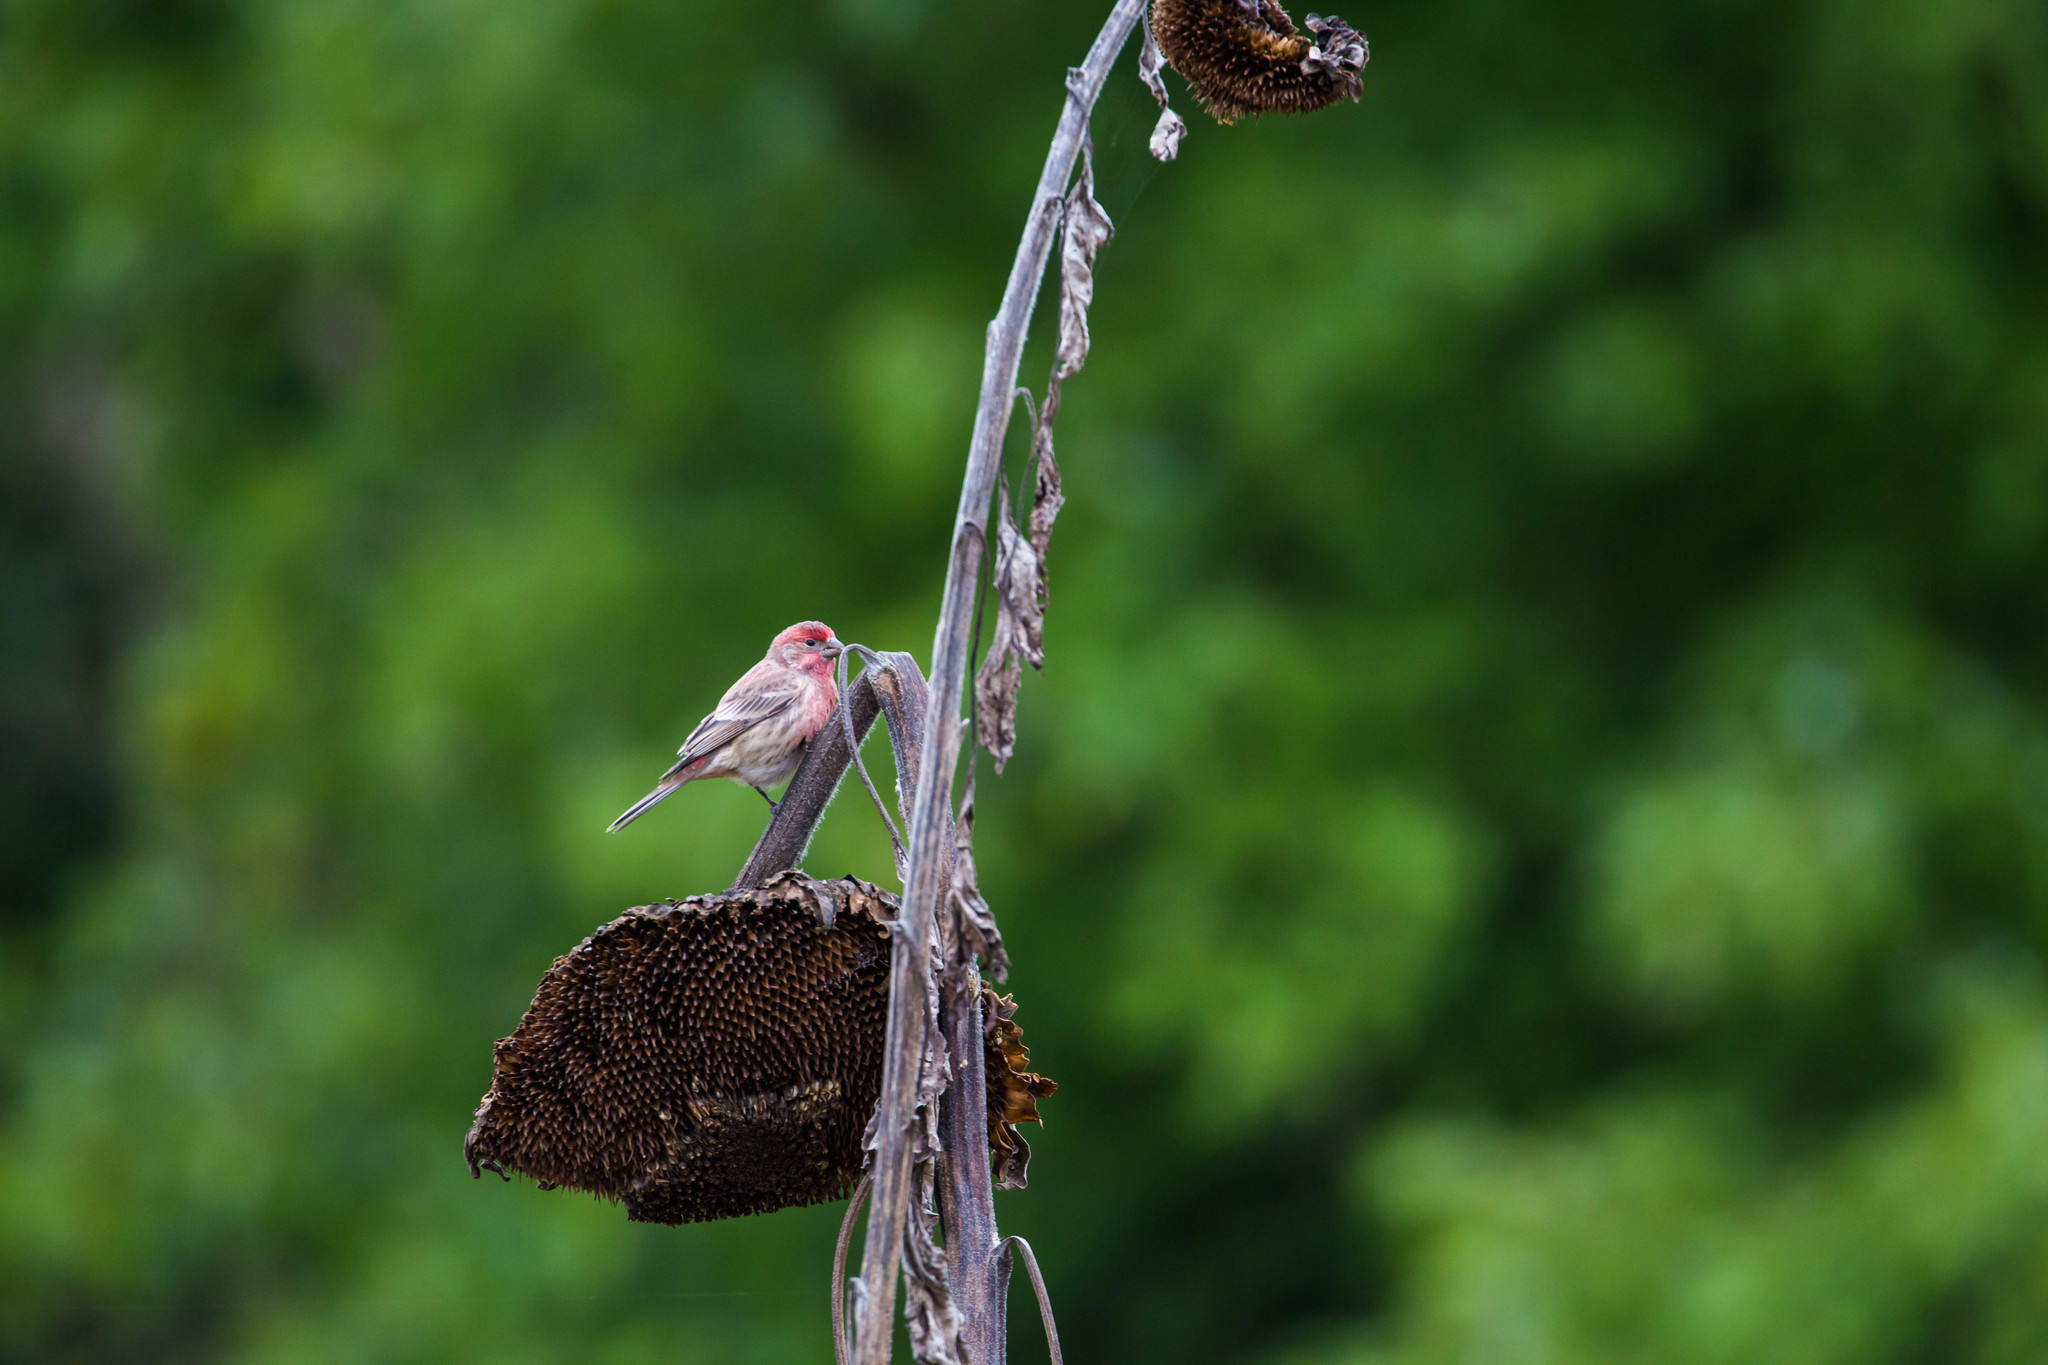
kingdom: Animalia
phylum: Chordata
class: Aves
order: Passeriformes
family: Fringillidae
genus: Haemorhous
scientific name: Haemorhous mexicanus
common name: House finch
